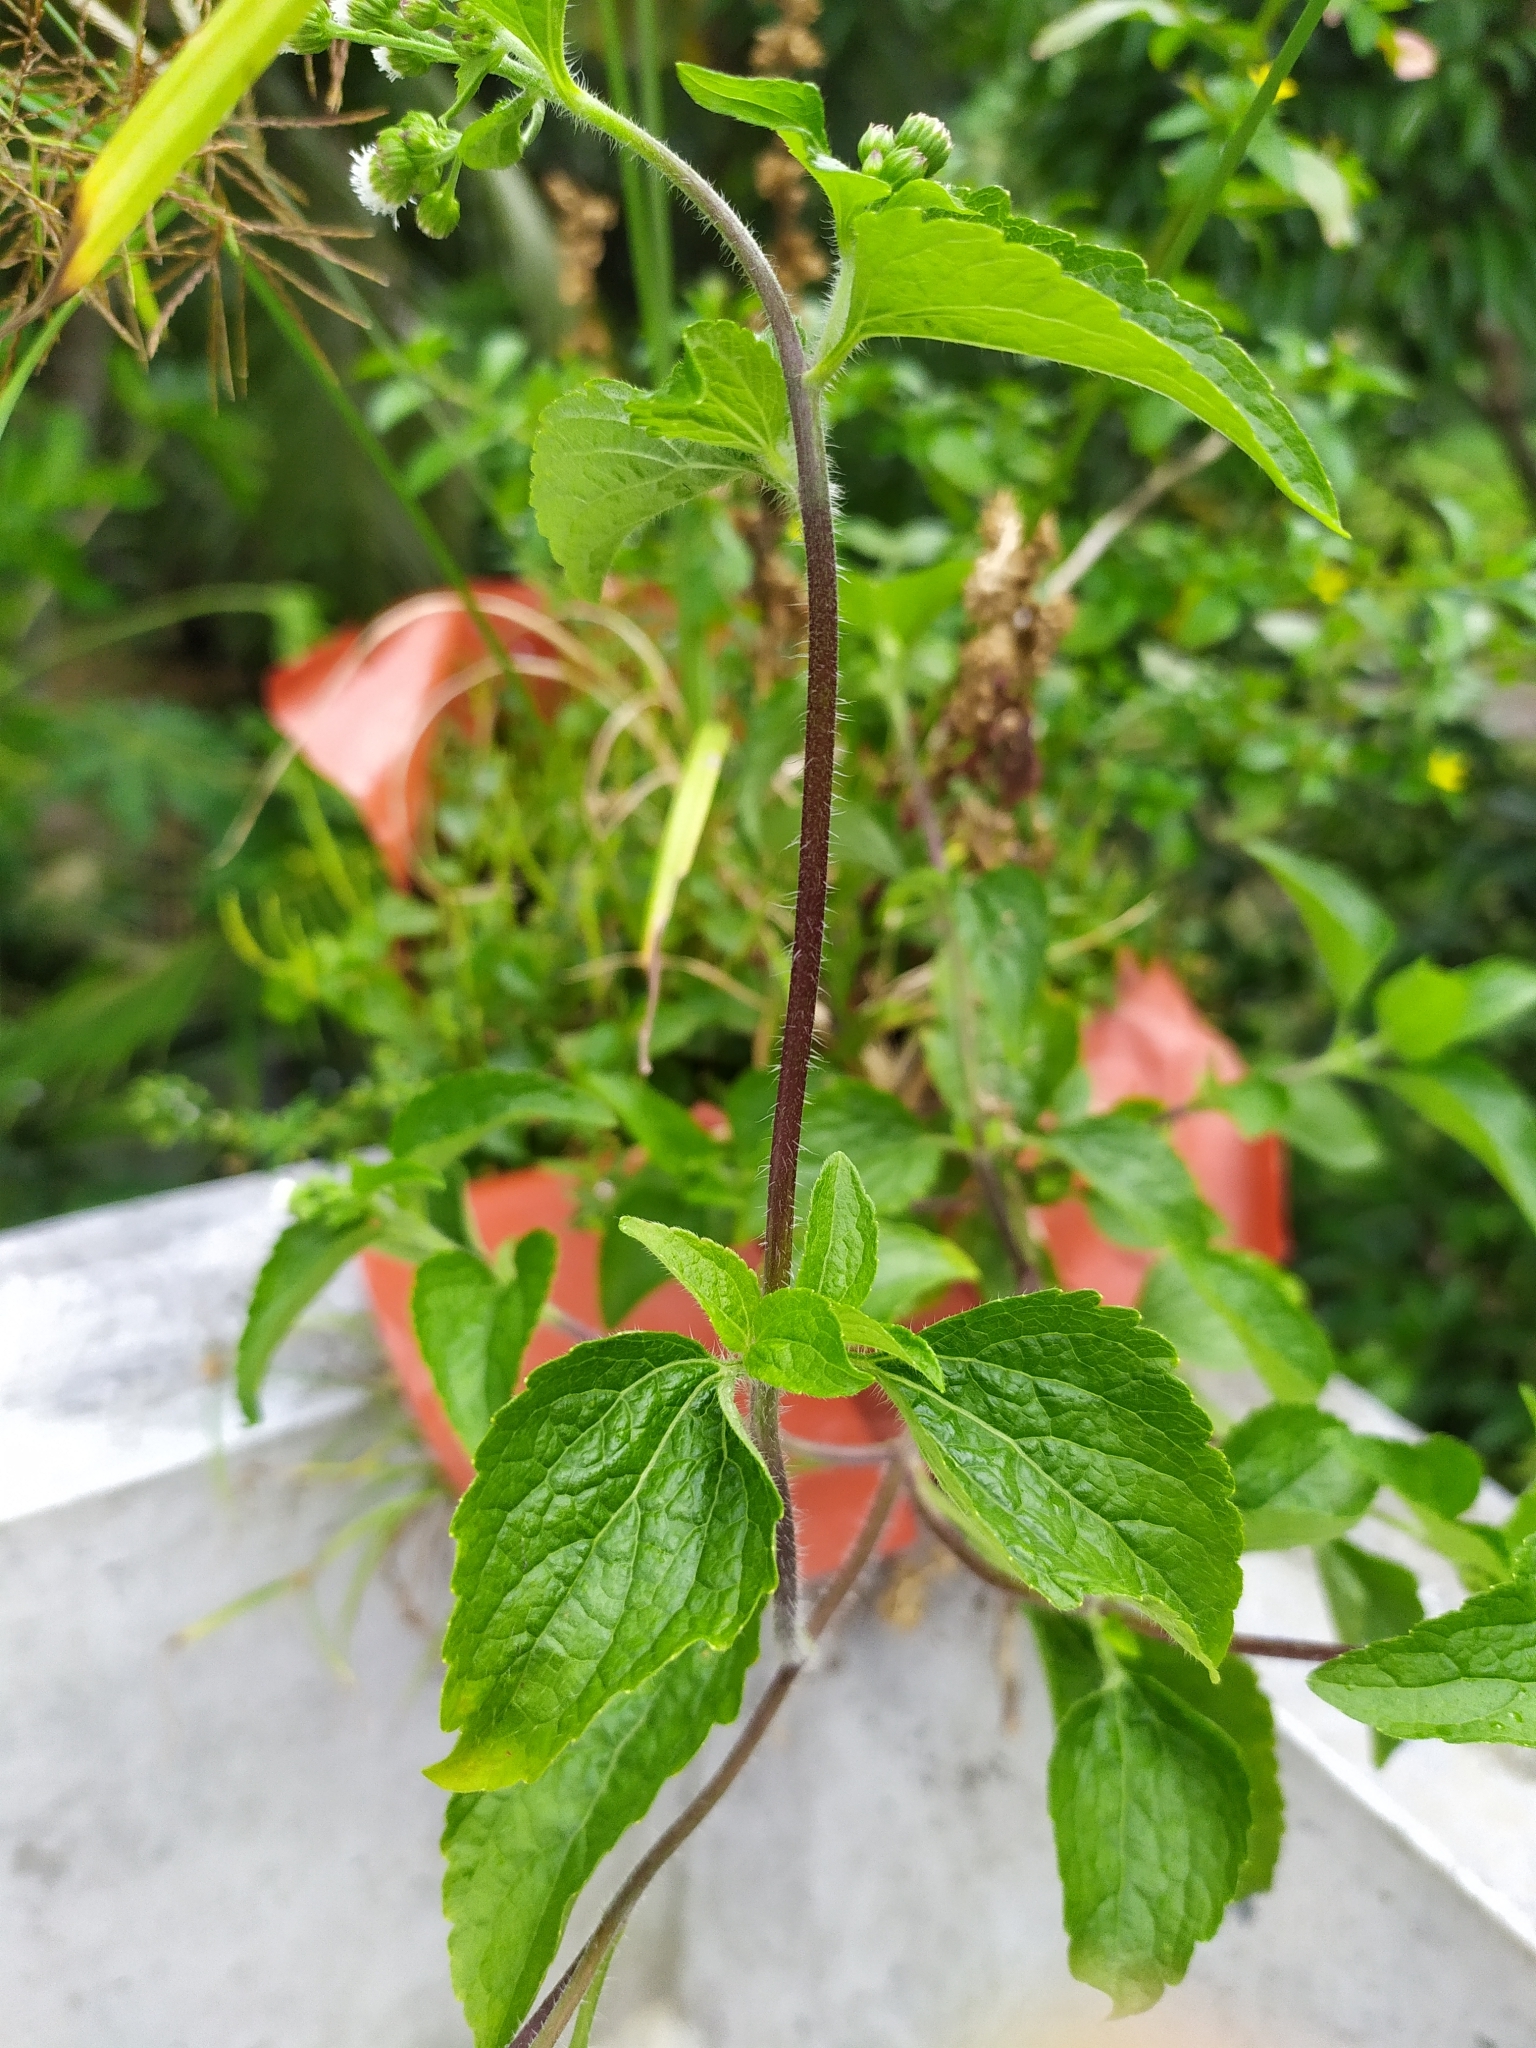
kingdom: Plantae
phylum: Tracheophyta
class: Magnoliopsida
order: Asterales
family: Asteraceae
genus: Ageratum
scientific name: Ageratum conyzoides
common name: Tropical whiteweed
